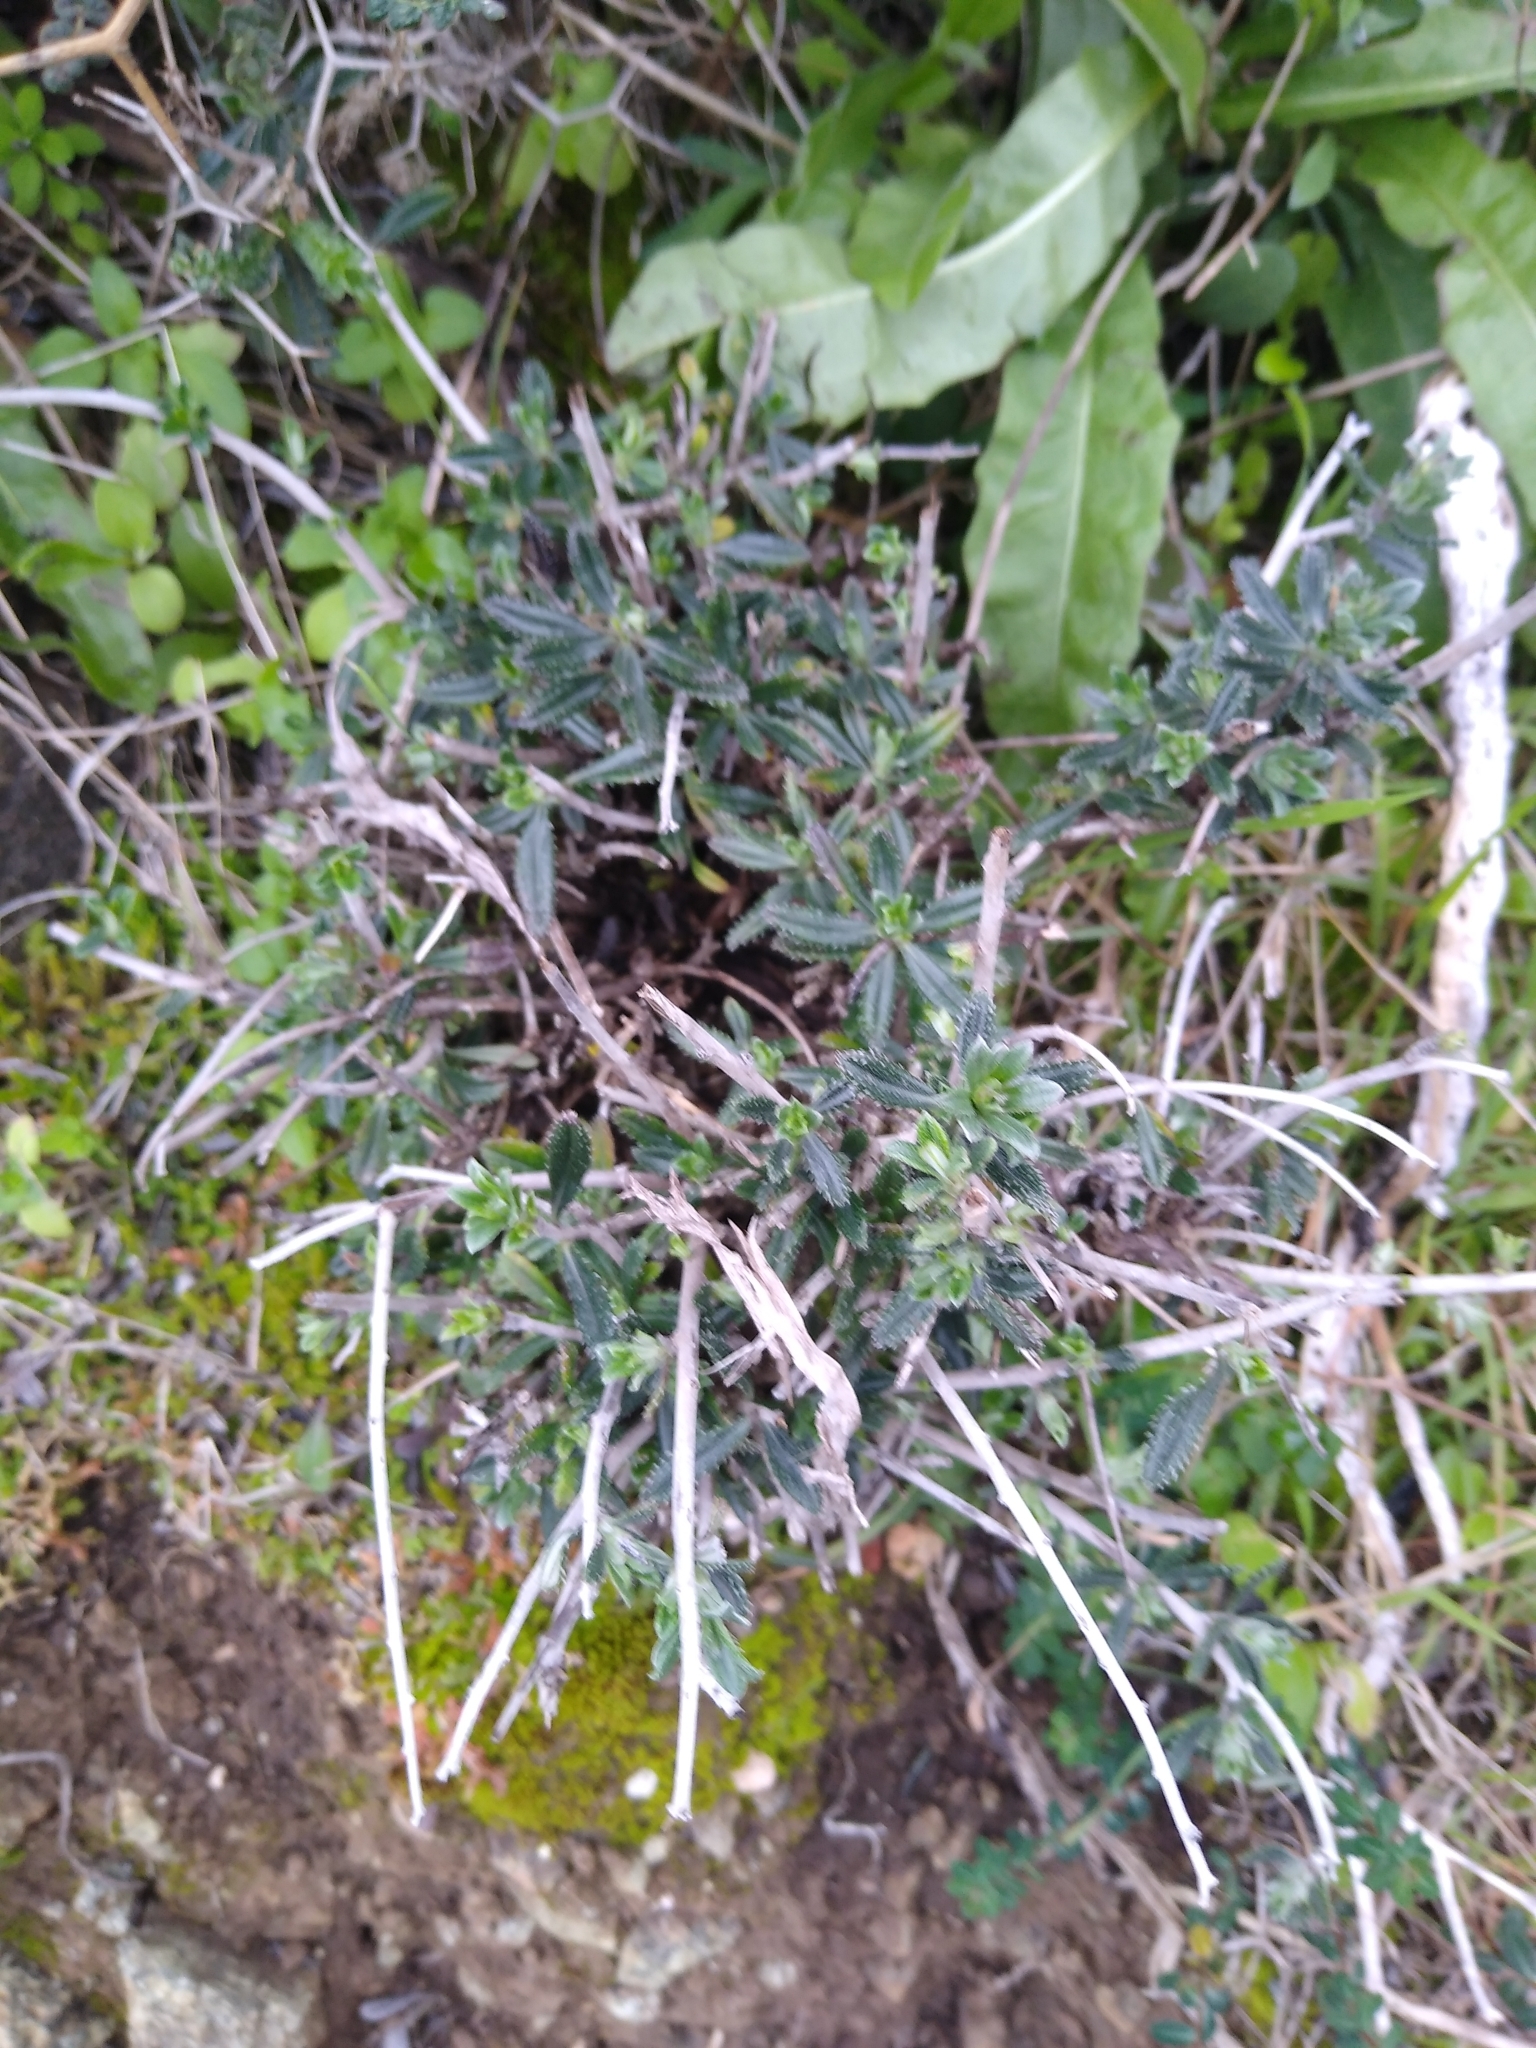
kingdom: Plantae
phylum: Tracheophyta
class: Magnoliopsida
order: Boraginales
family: Boraginaceae
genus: Lithodora
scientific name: Lithodora hispidula
